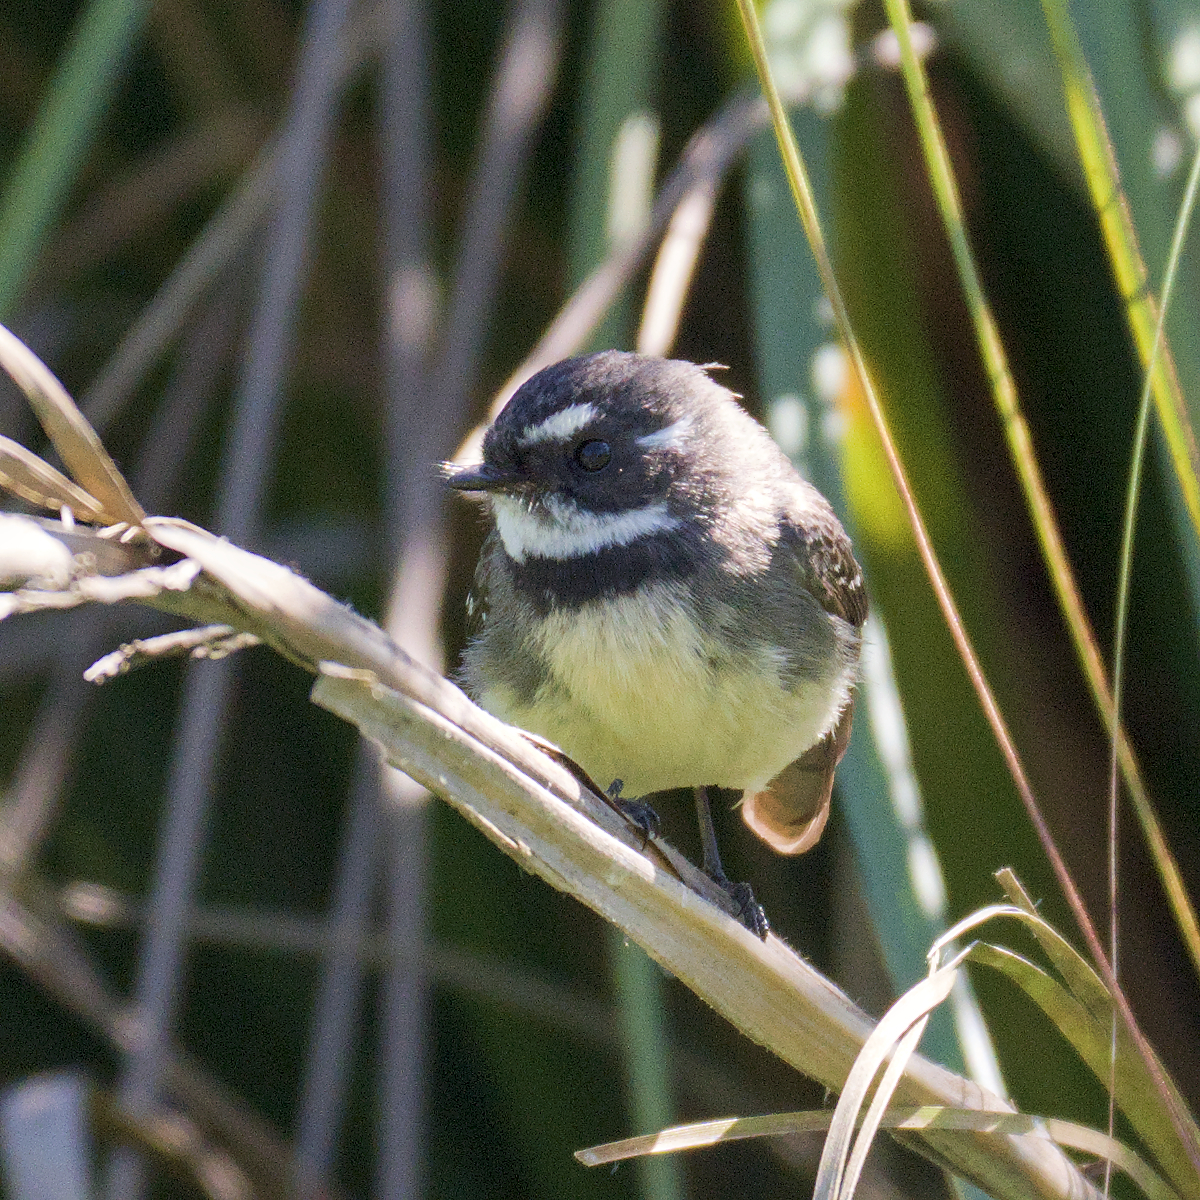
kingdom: Animalia
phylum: Chordata
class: Aves
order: Passeriformes
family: Rhipiduridae
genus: Rhipidura
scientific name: Rhipidura albiscapa
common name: Grey fantail
